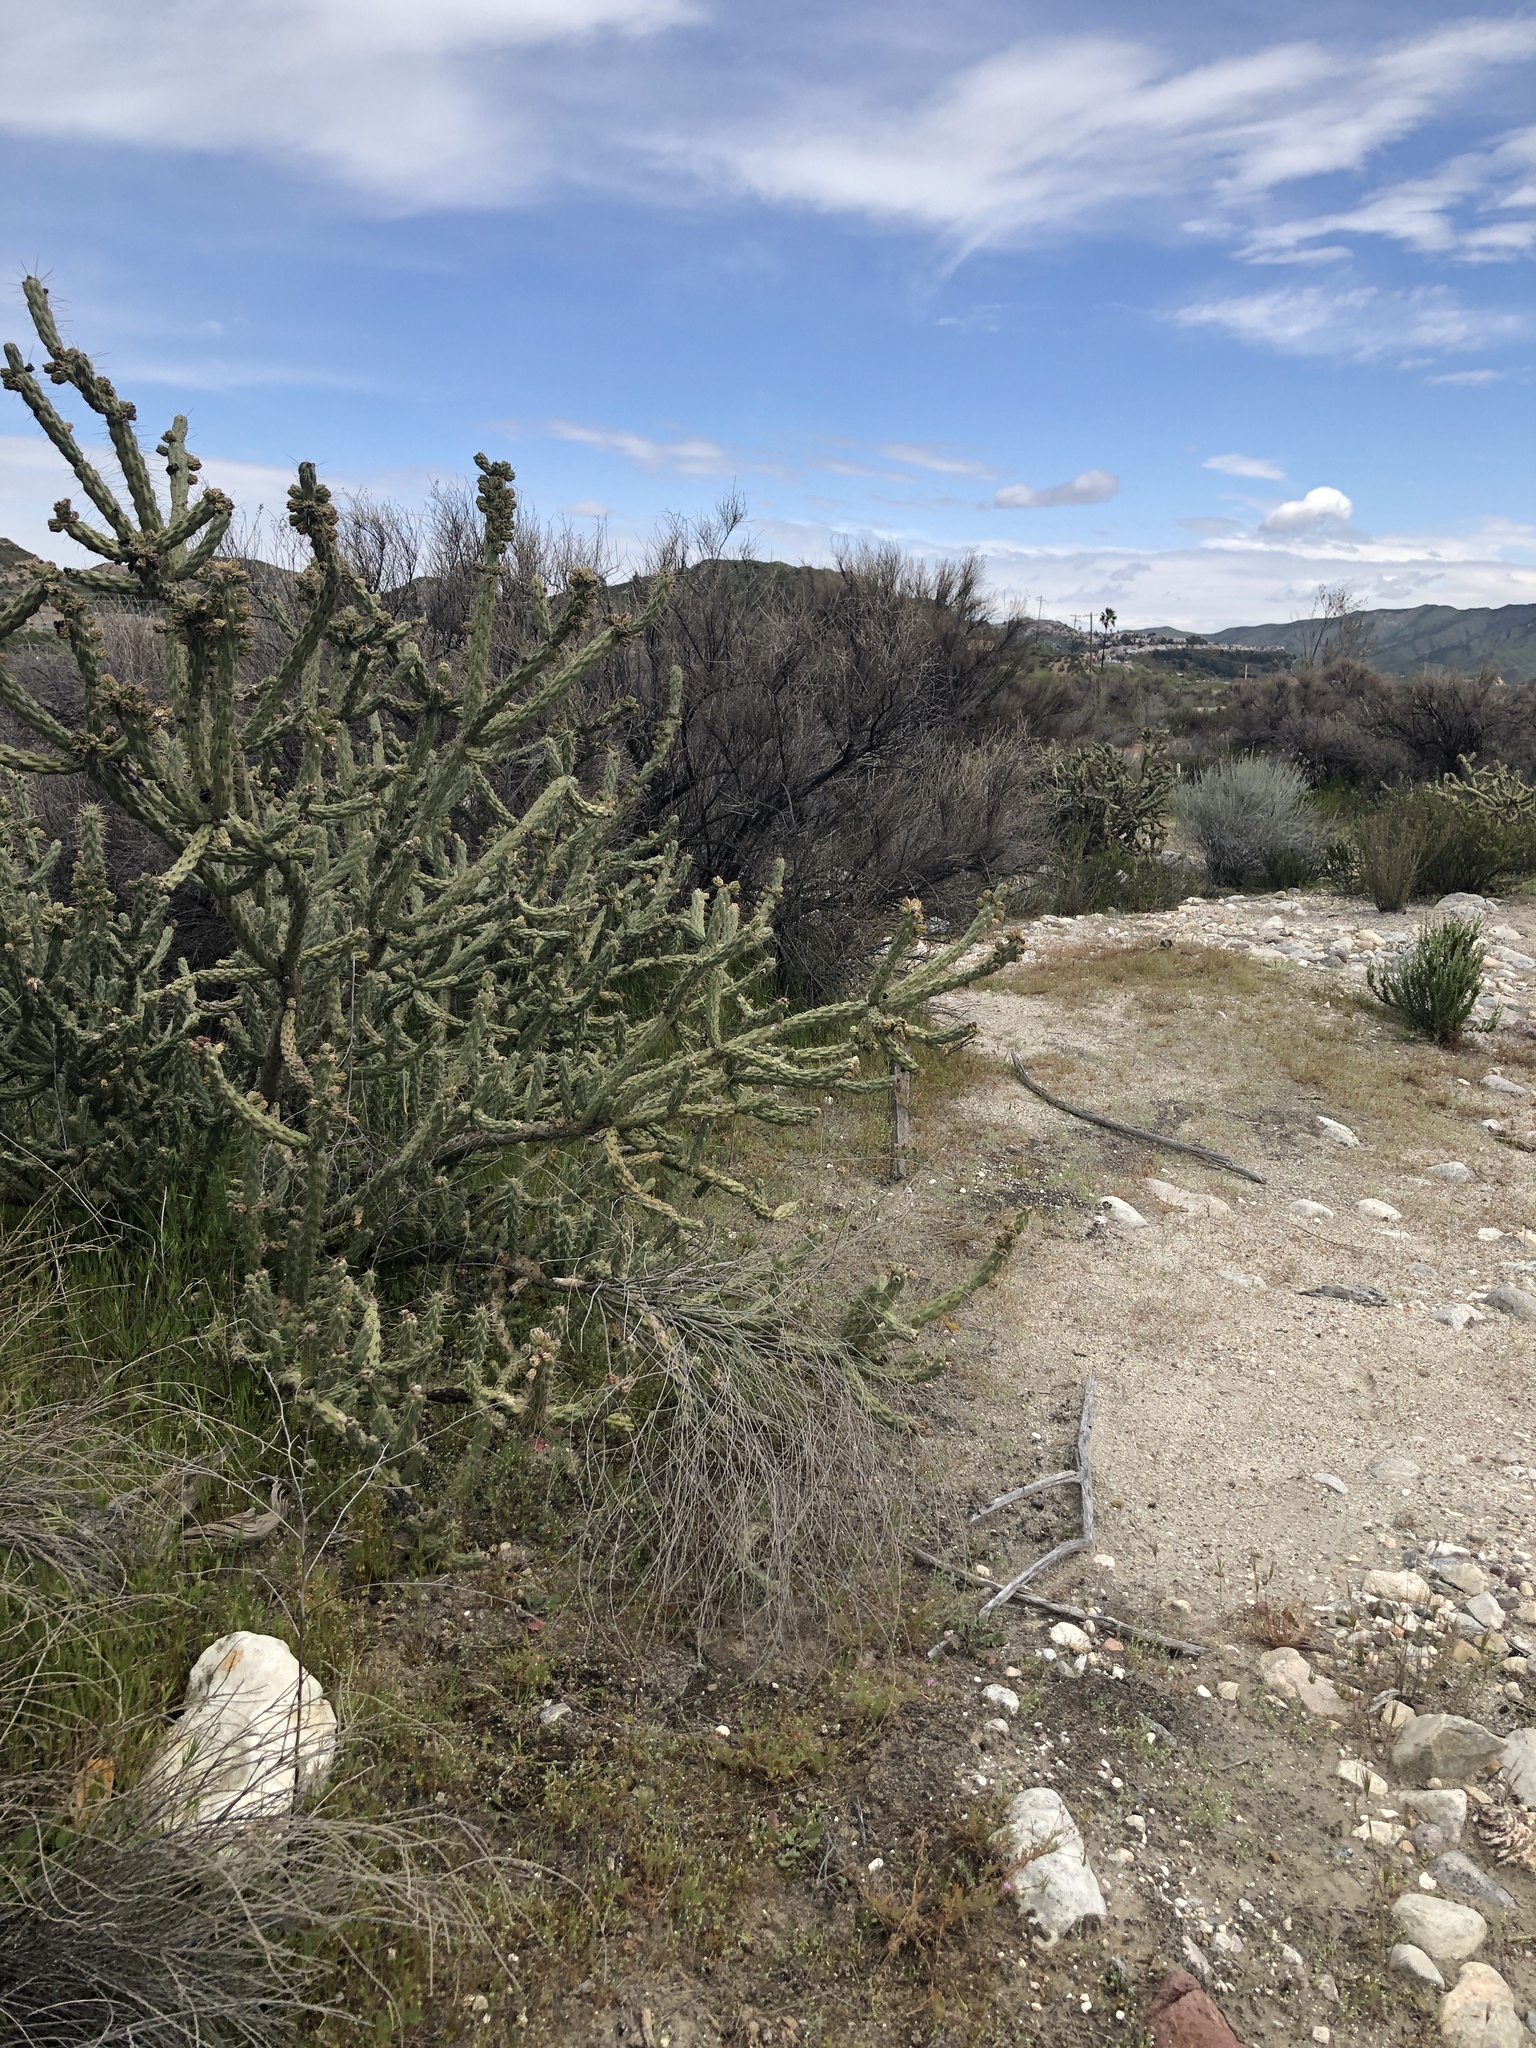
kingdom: Plantae
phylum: Tracheophyta
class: Magnoliopsida
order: Caryophyllales
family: Cactaceae
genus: Cylindropuntia
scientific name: Cylindropuntia bernardina
